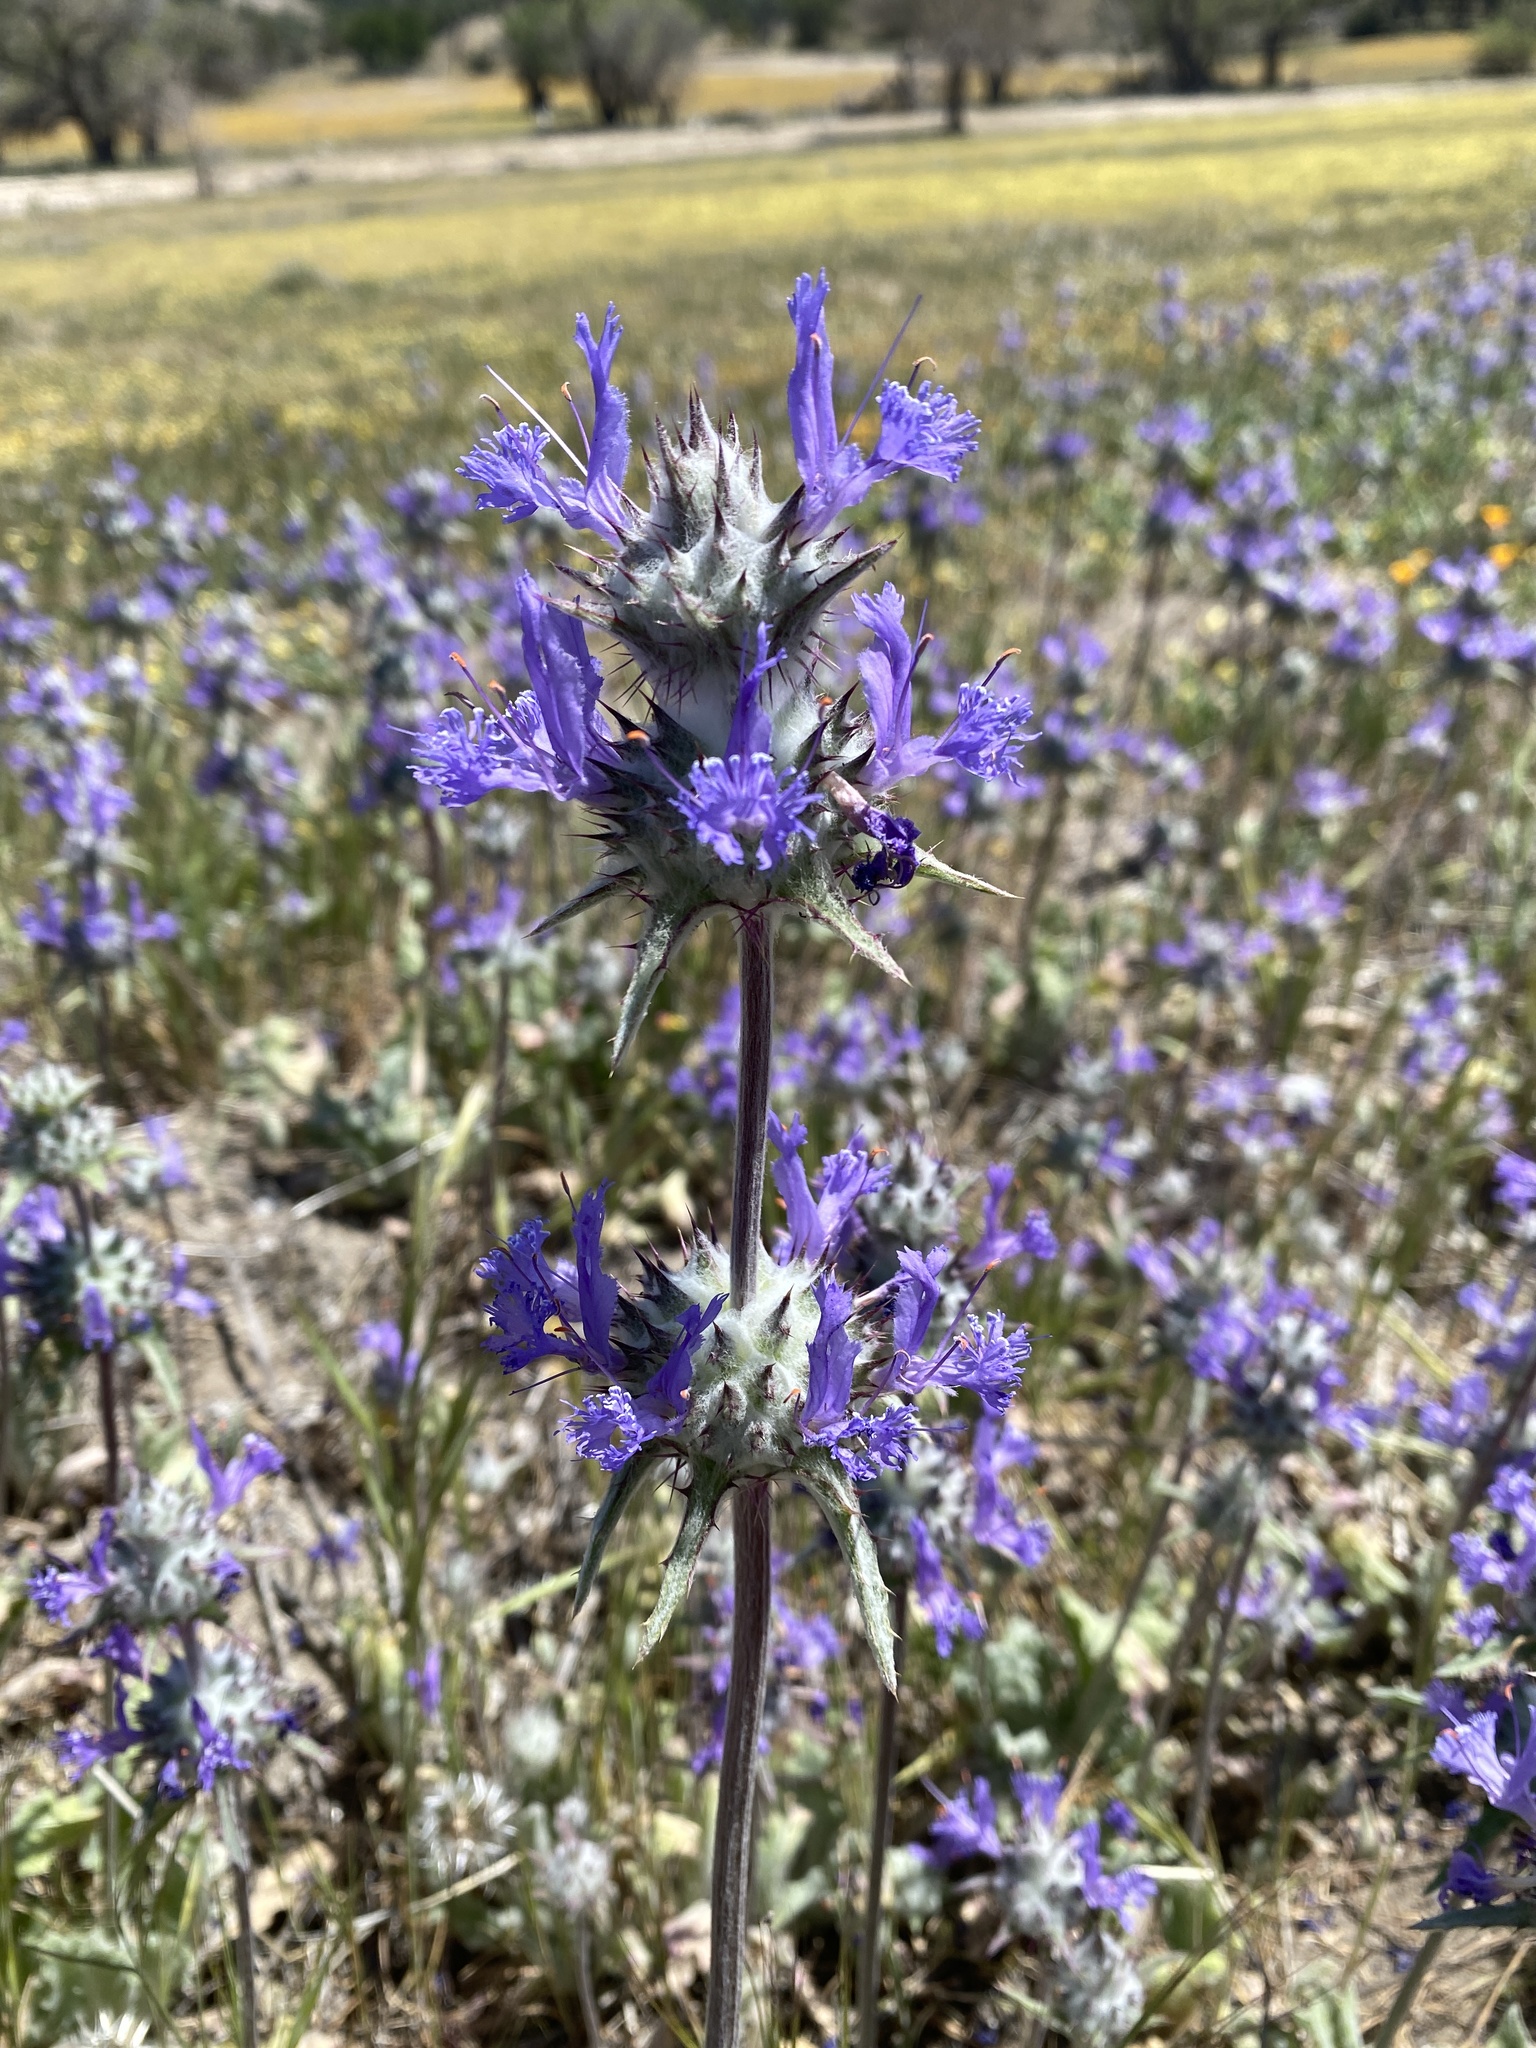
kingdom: Plantae
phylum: Tracheophyta
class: Magnoliopsida
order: Lamiales
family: Lamiaceae
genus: Salvia
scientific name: Salvia carduacea
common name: Thistle sage
